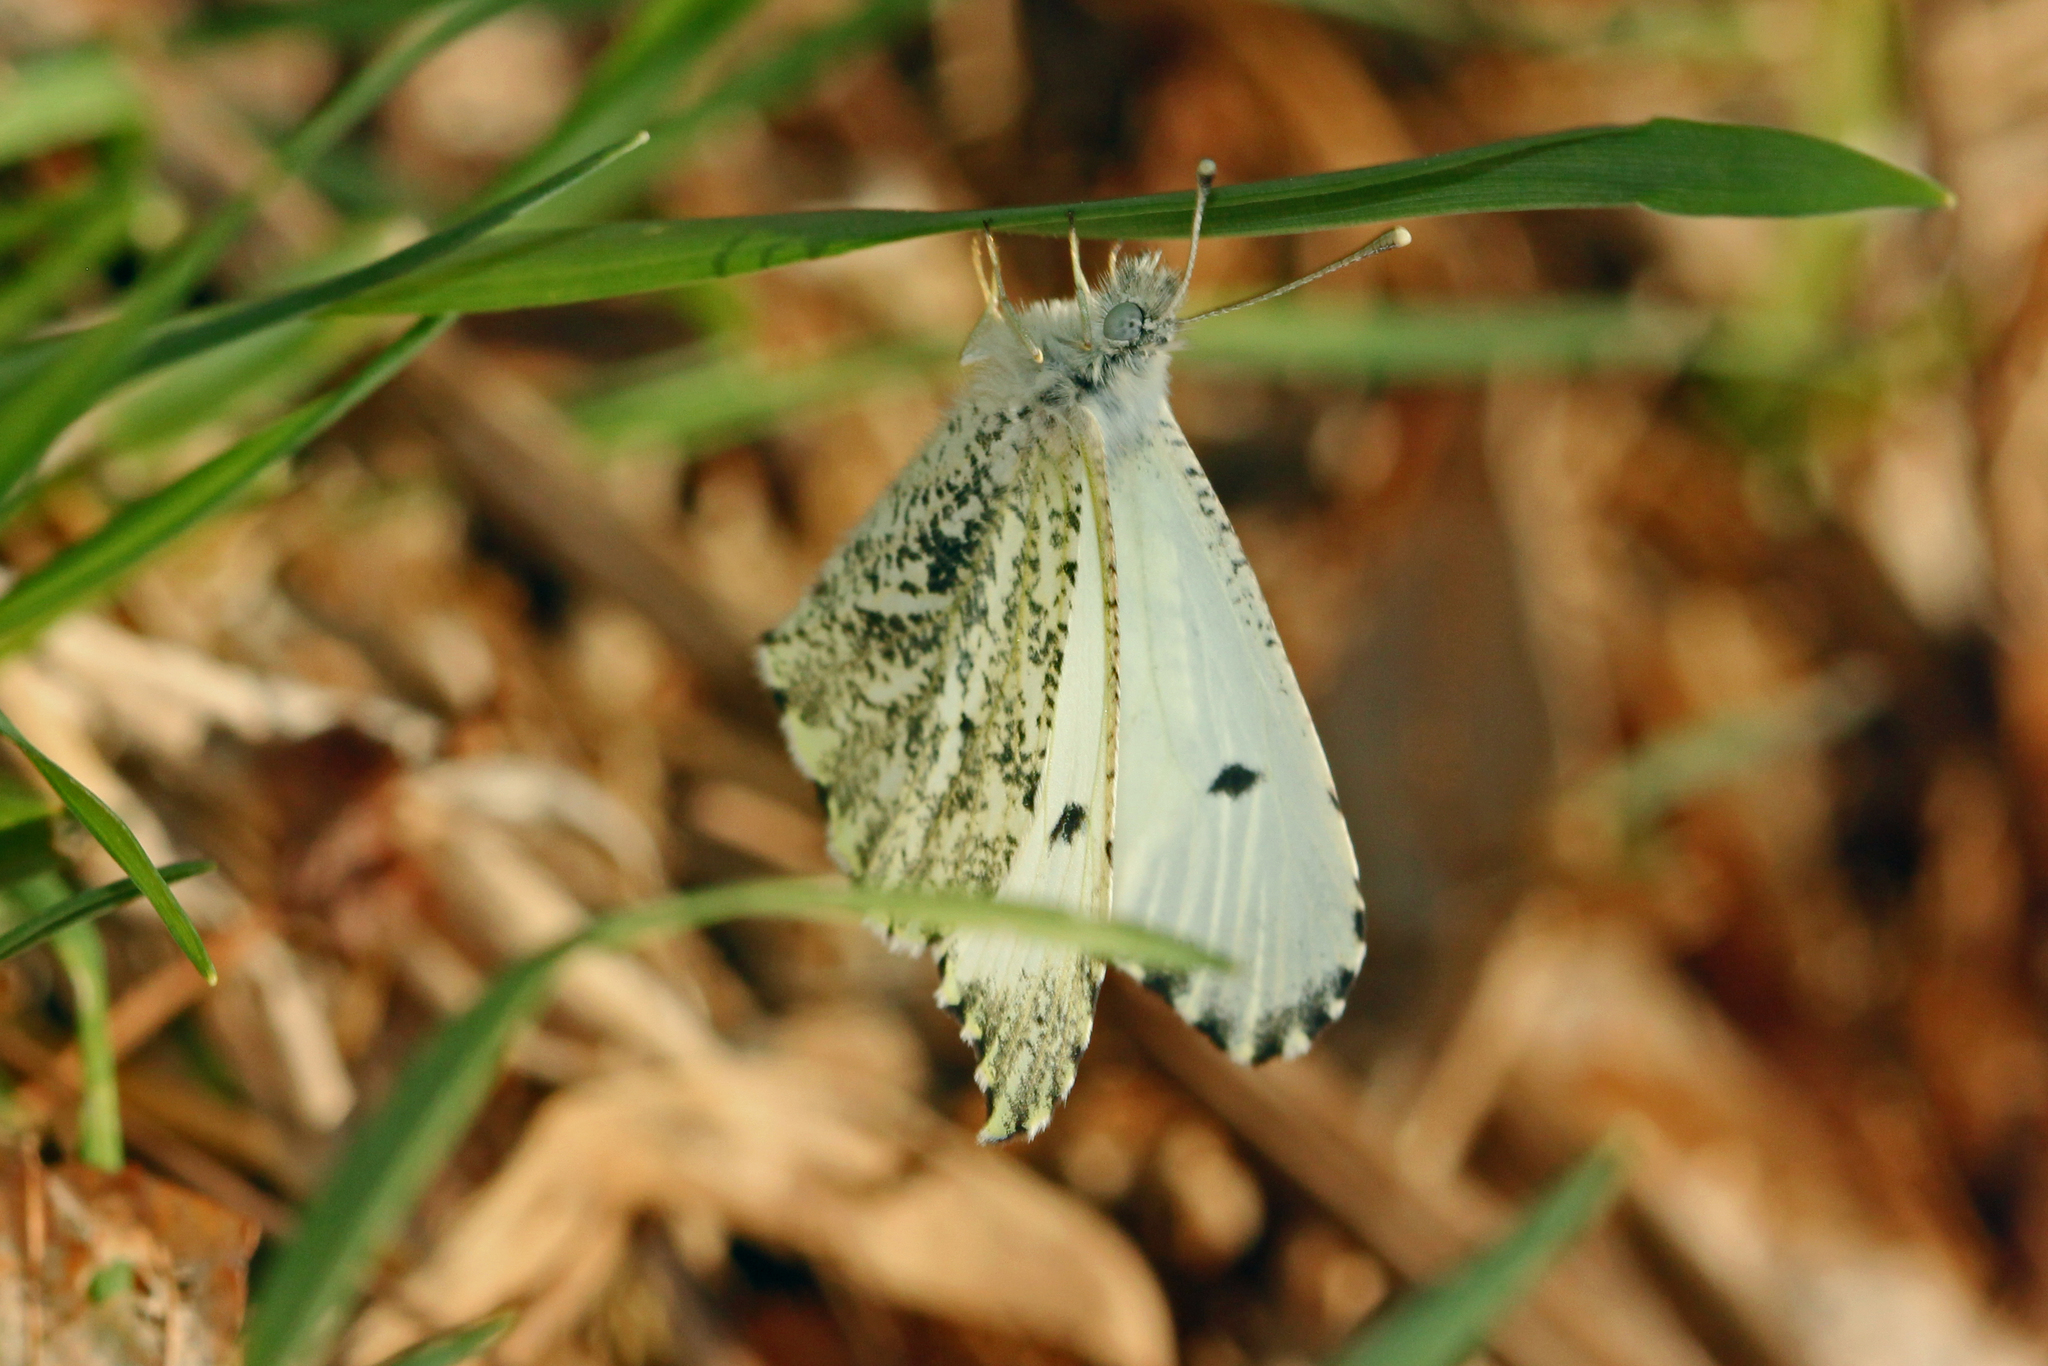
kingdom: Animalia
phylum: Arthropoda
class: Insecta
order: Lepidoptera
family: Pieridae
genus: Anthocharis
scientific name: Anthocharis midea
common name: Falcate orangetip
